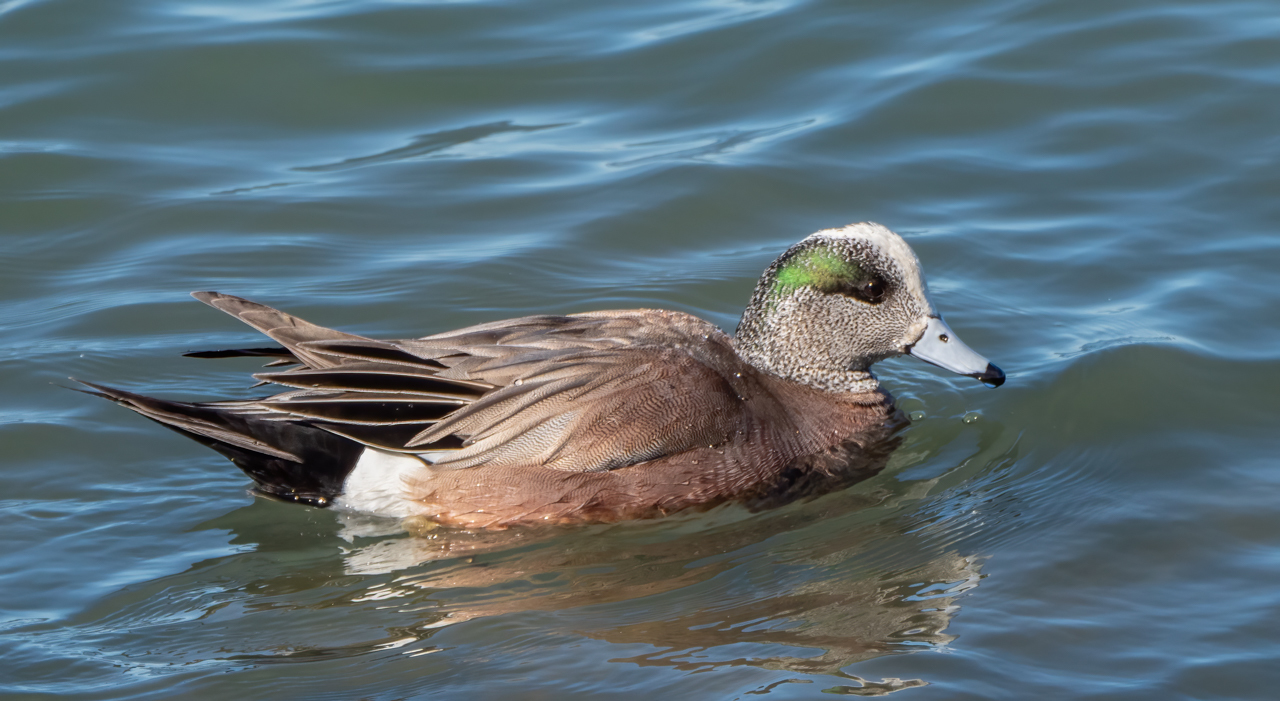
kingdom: Animalia
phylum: Chordata
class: Aves
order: Anseriformes
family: Anatidae
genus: Mareca
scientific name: Mareca americana
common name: American wigeon
